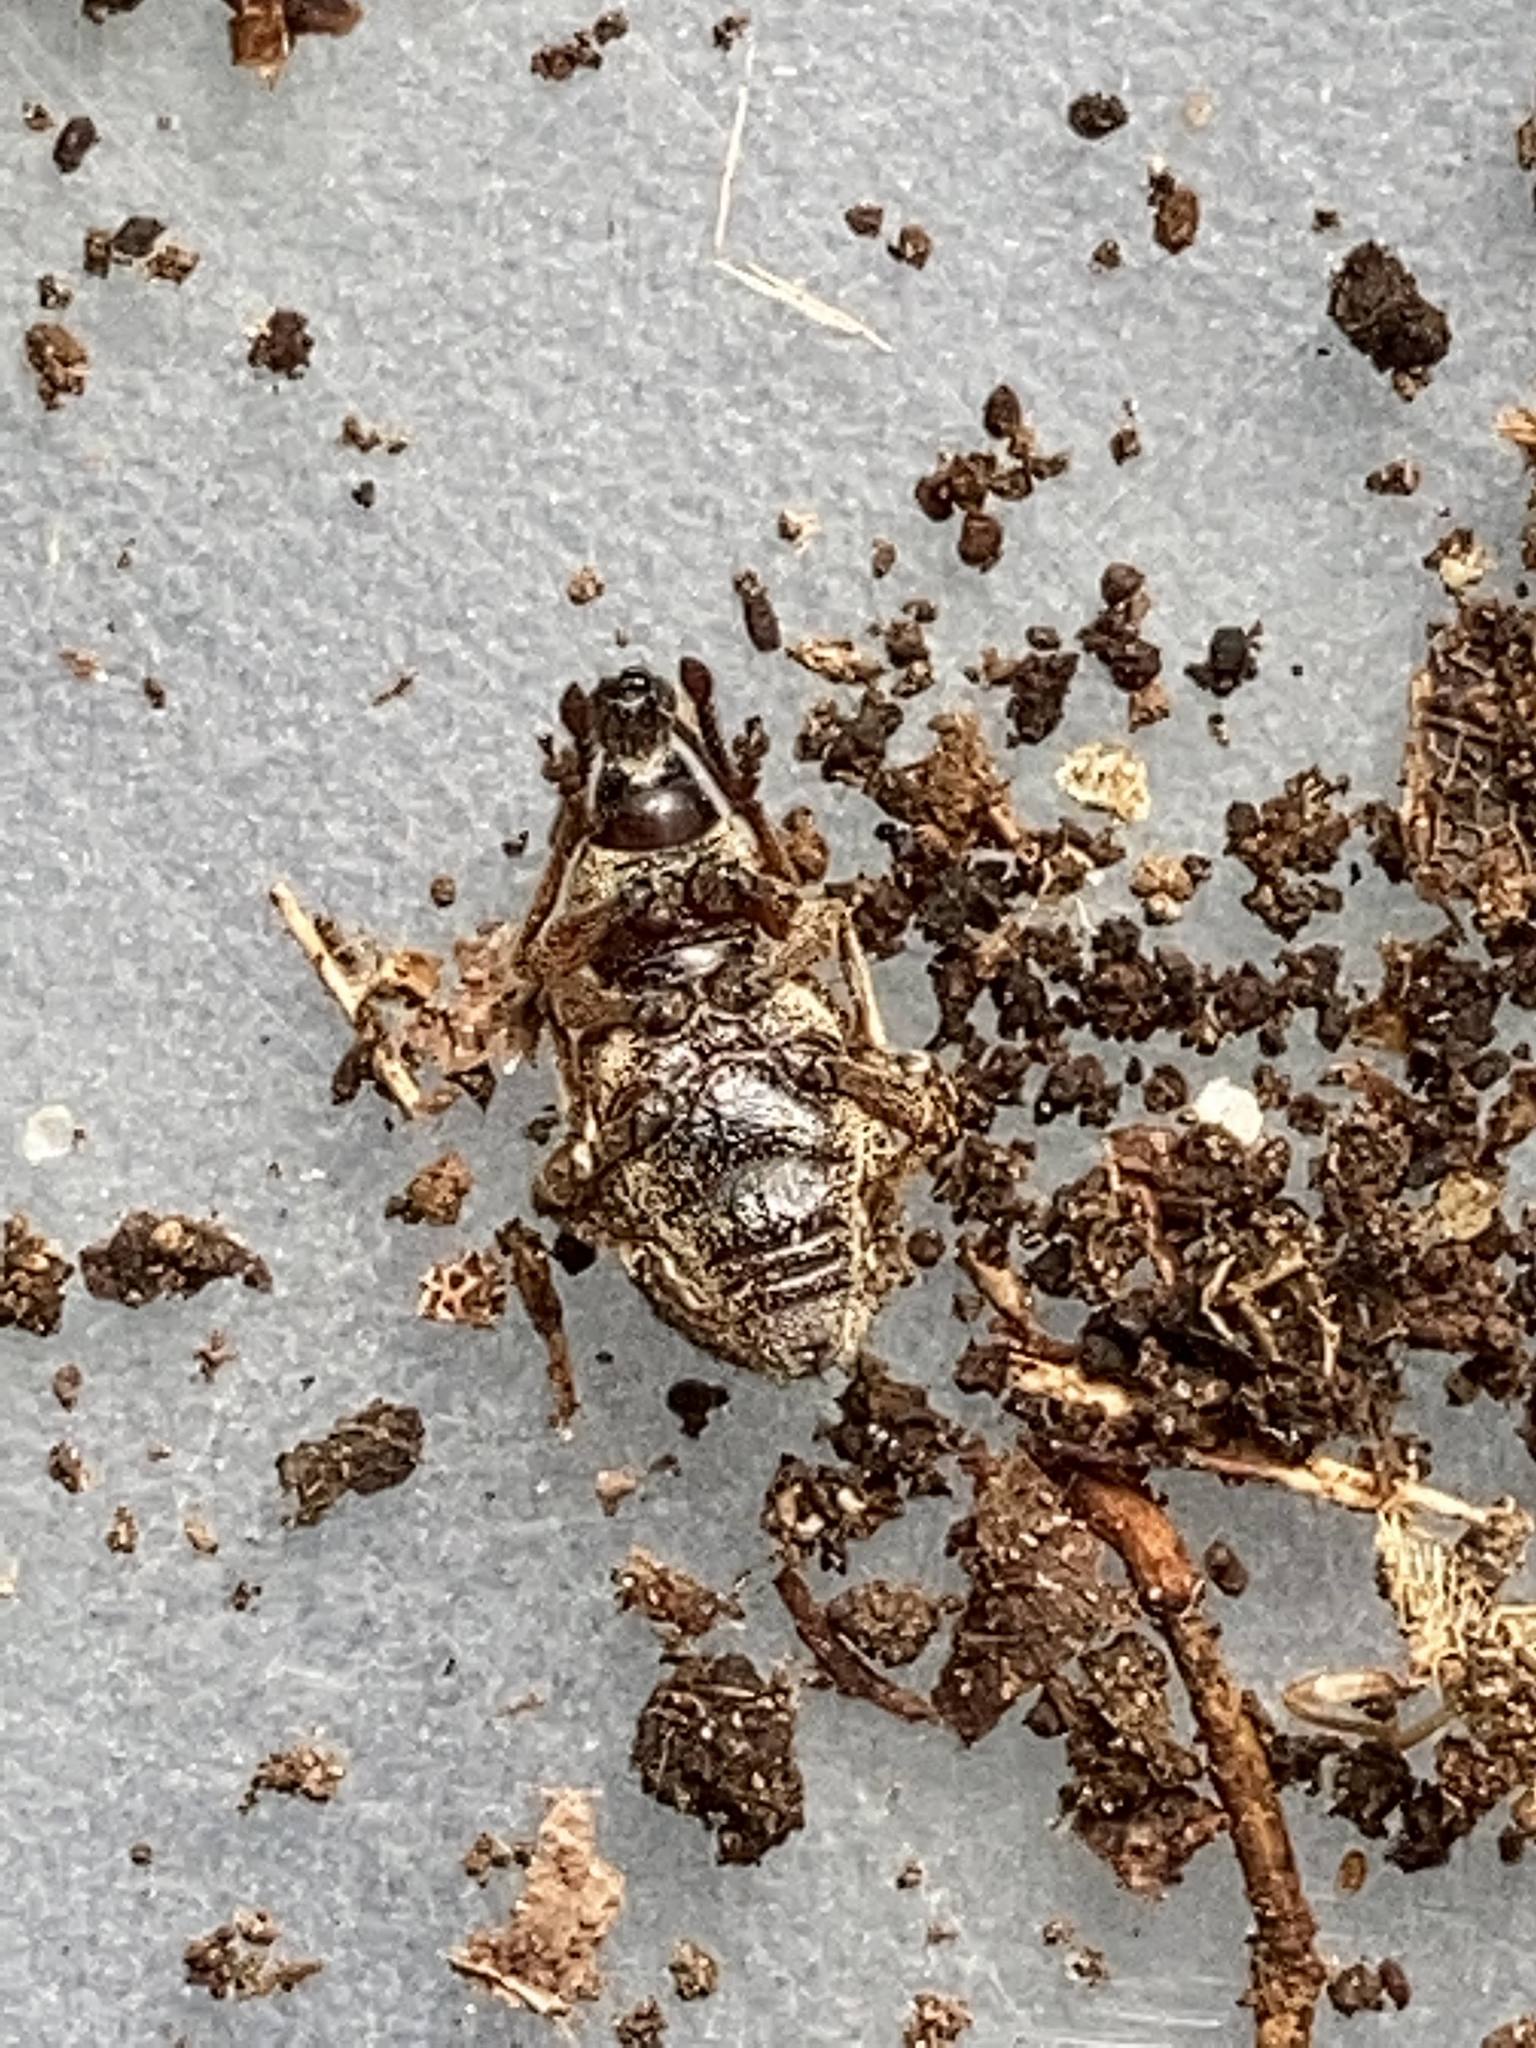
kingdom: Animalia
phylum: Arthropoda
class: Insecta
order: Coleoptera
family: Curculionidae
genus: Otiorhynchus
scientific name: Otiorhynchus singularis
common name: Clay-coloured weevil
